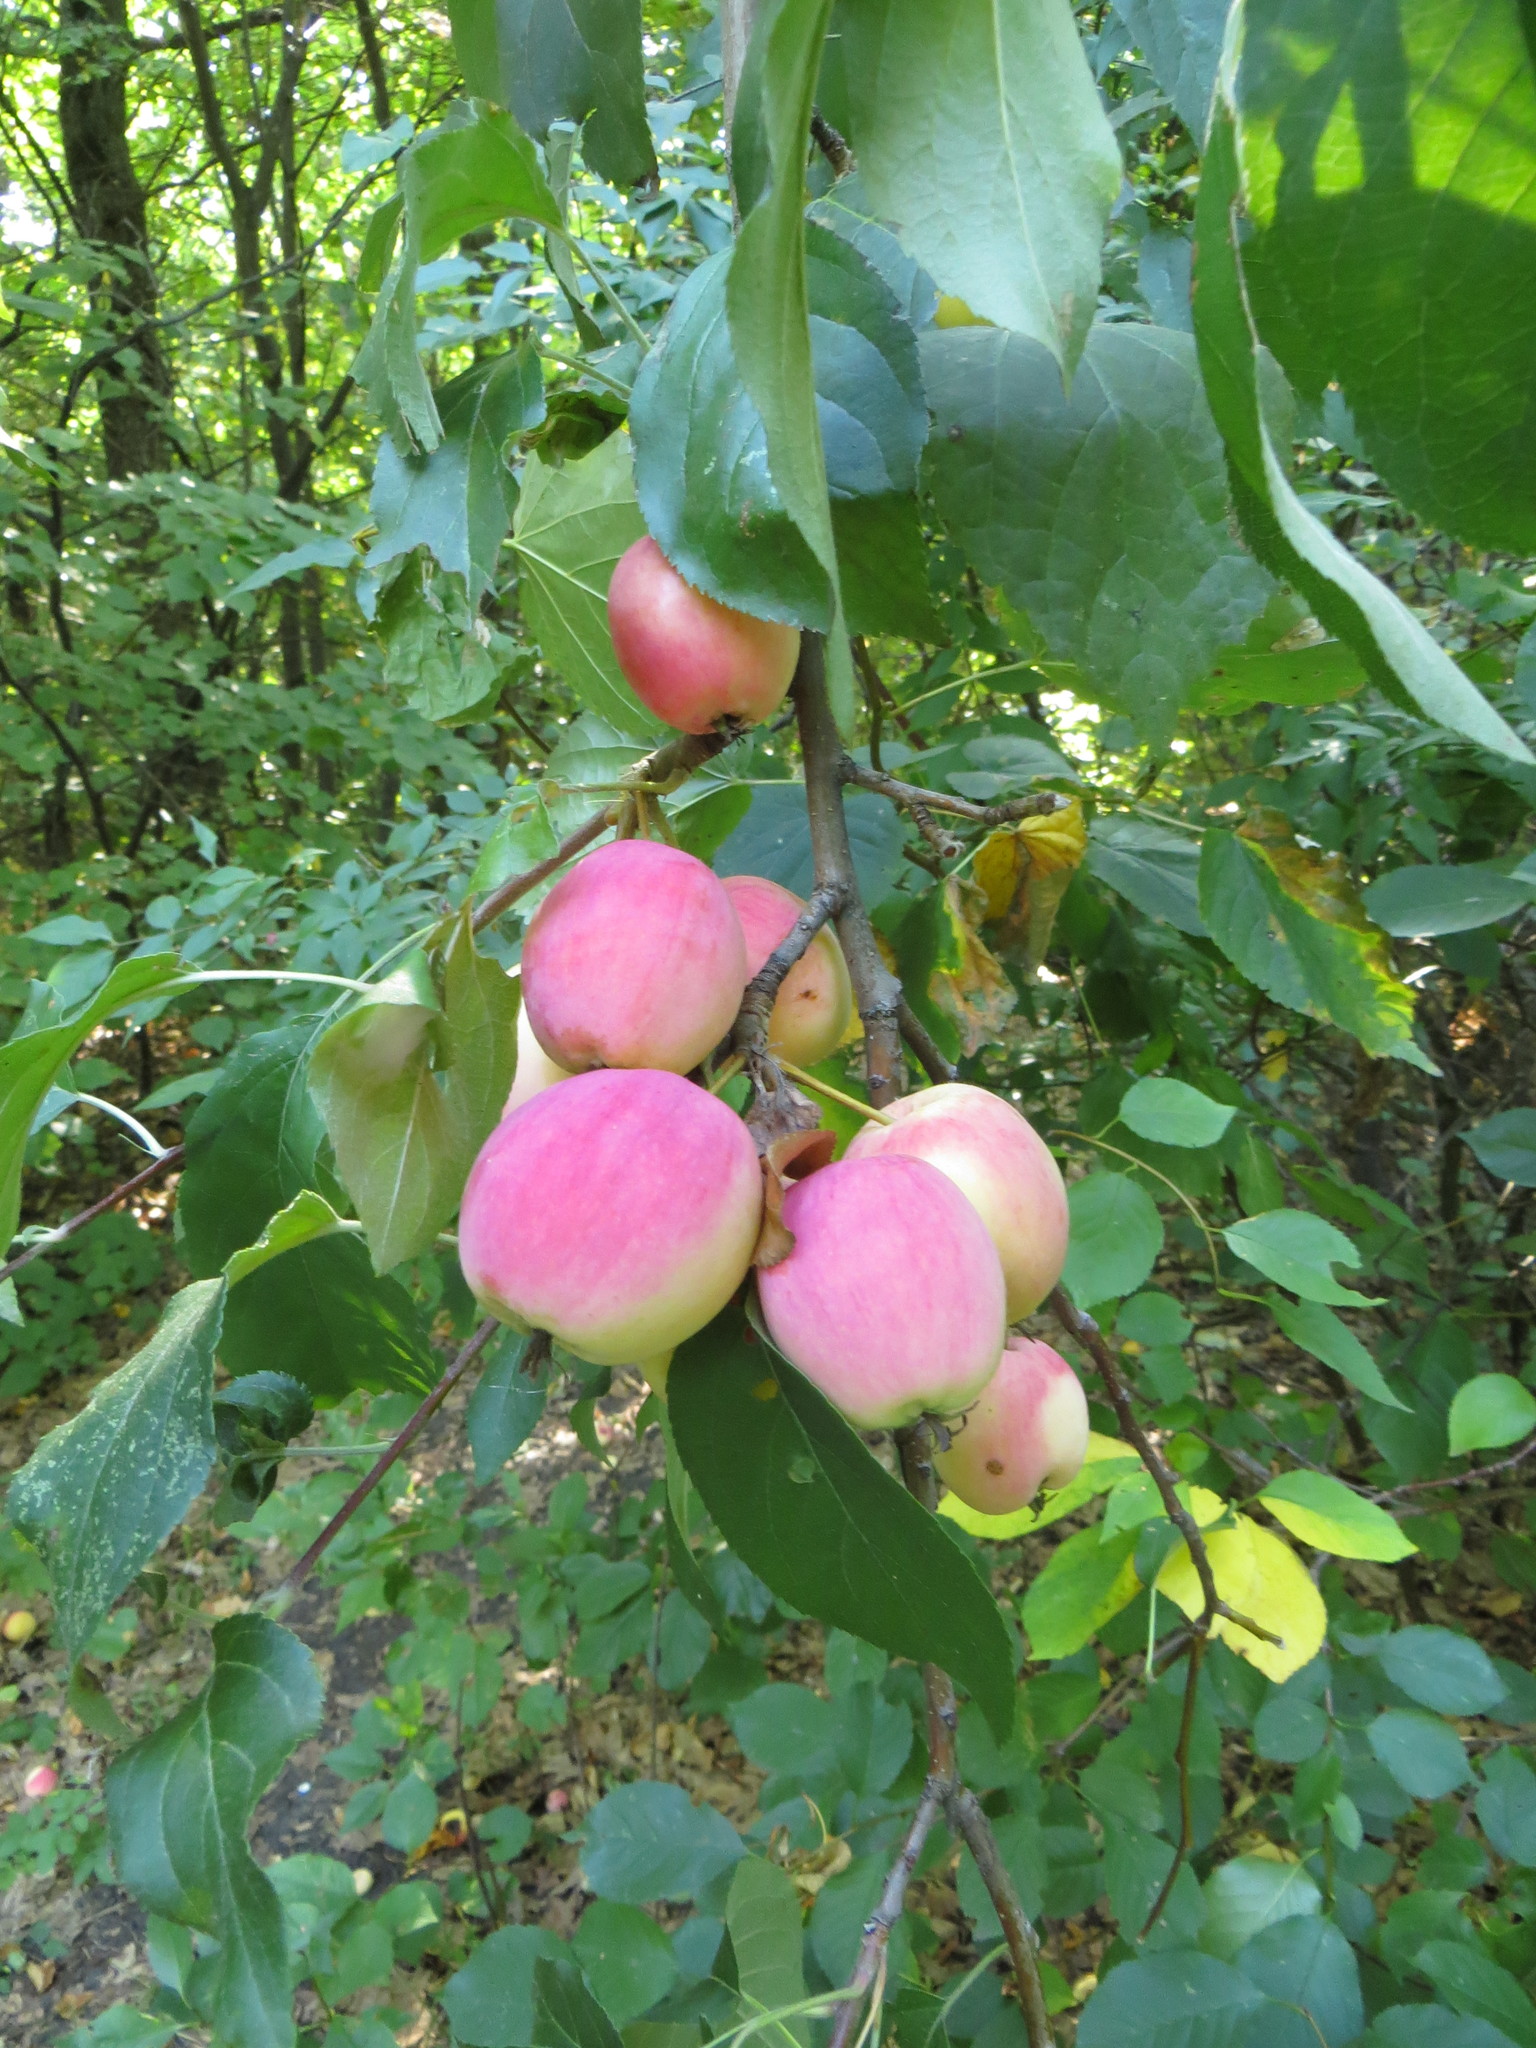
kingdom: Plantae
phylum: Tracheophyta
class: Magnoliopsida
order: Rosales
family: Rosaceae
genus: Malus
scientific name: Malus domestica
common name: Apple
